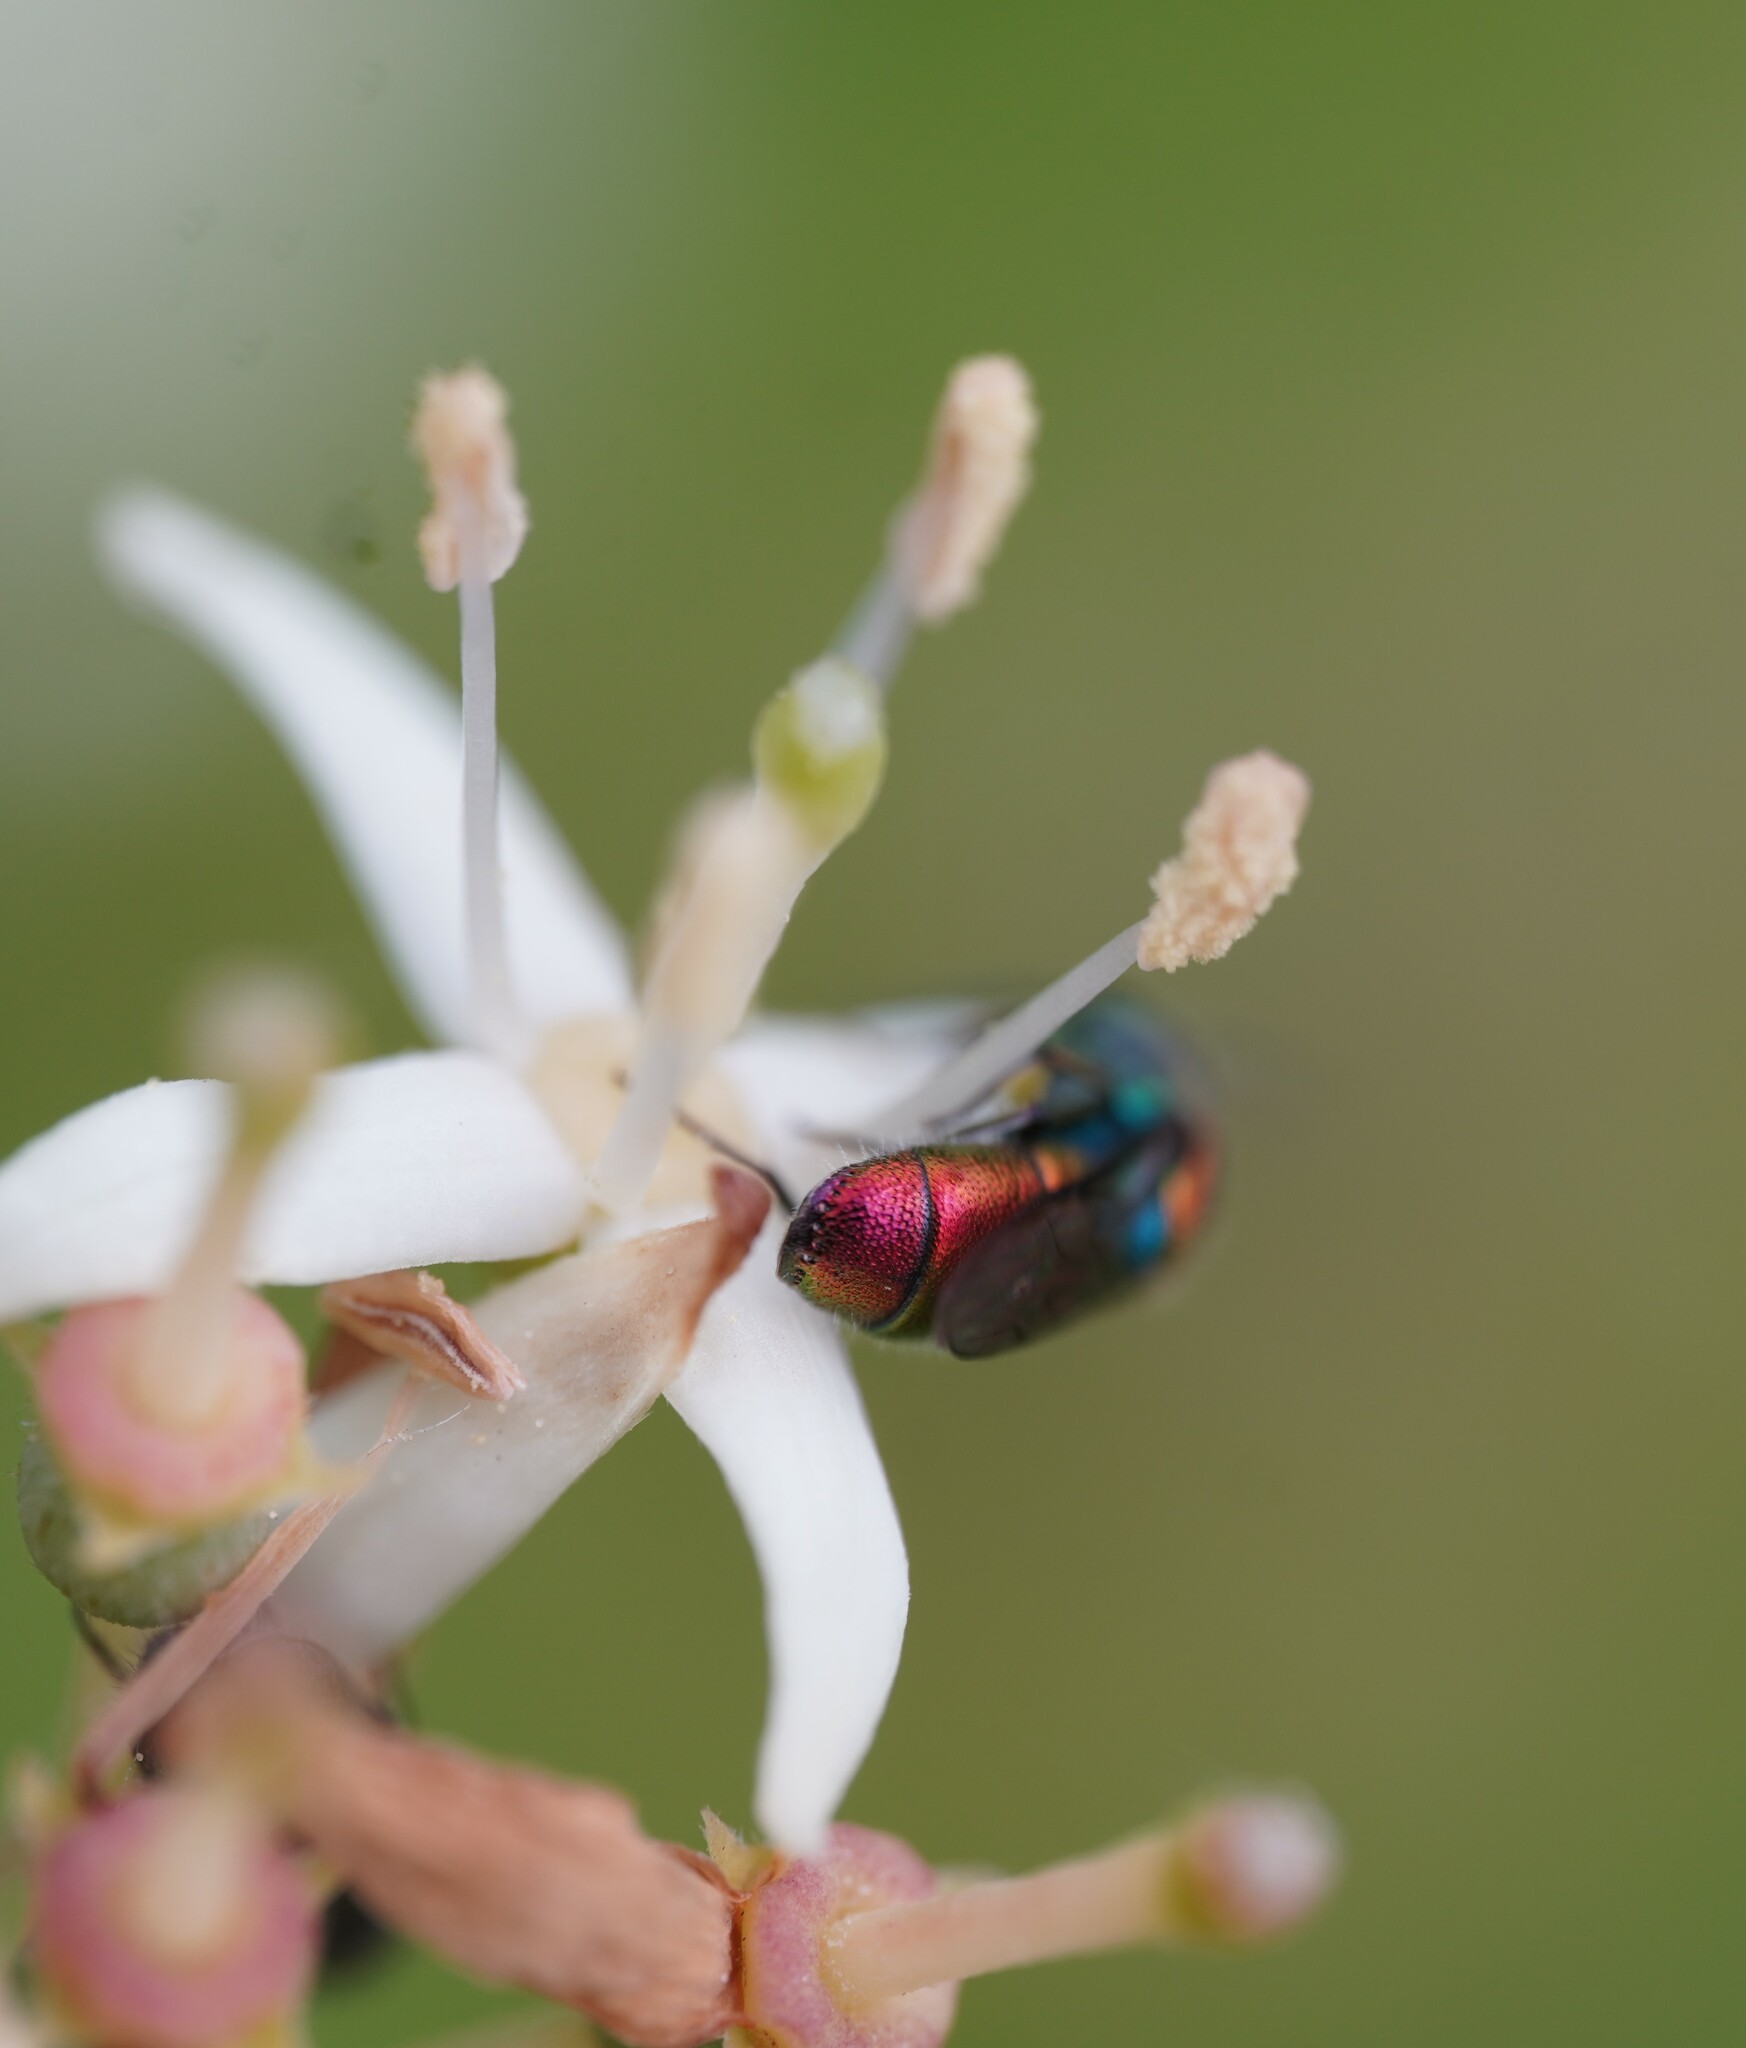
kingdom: Animalia
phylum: Arthropoda
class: Insecta
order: Hymenoptera
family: Chrysididae
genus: Chrysis
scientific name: Chrysis germari
